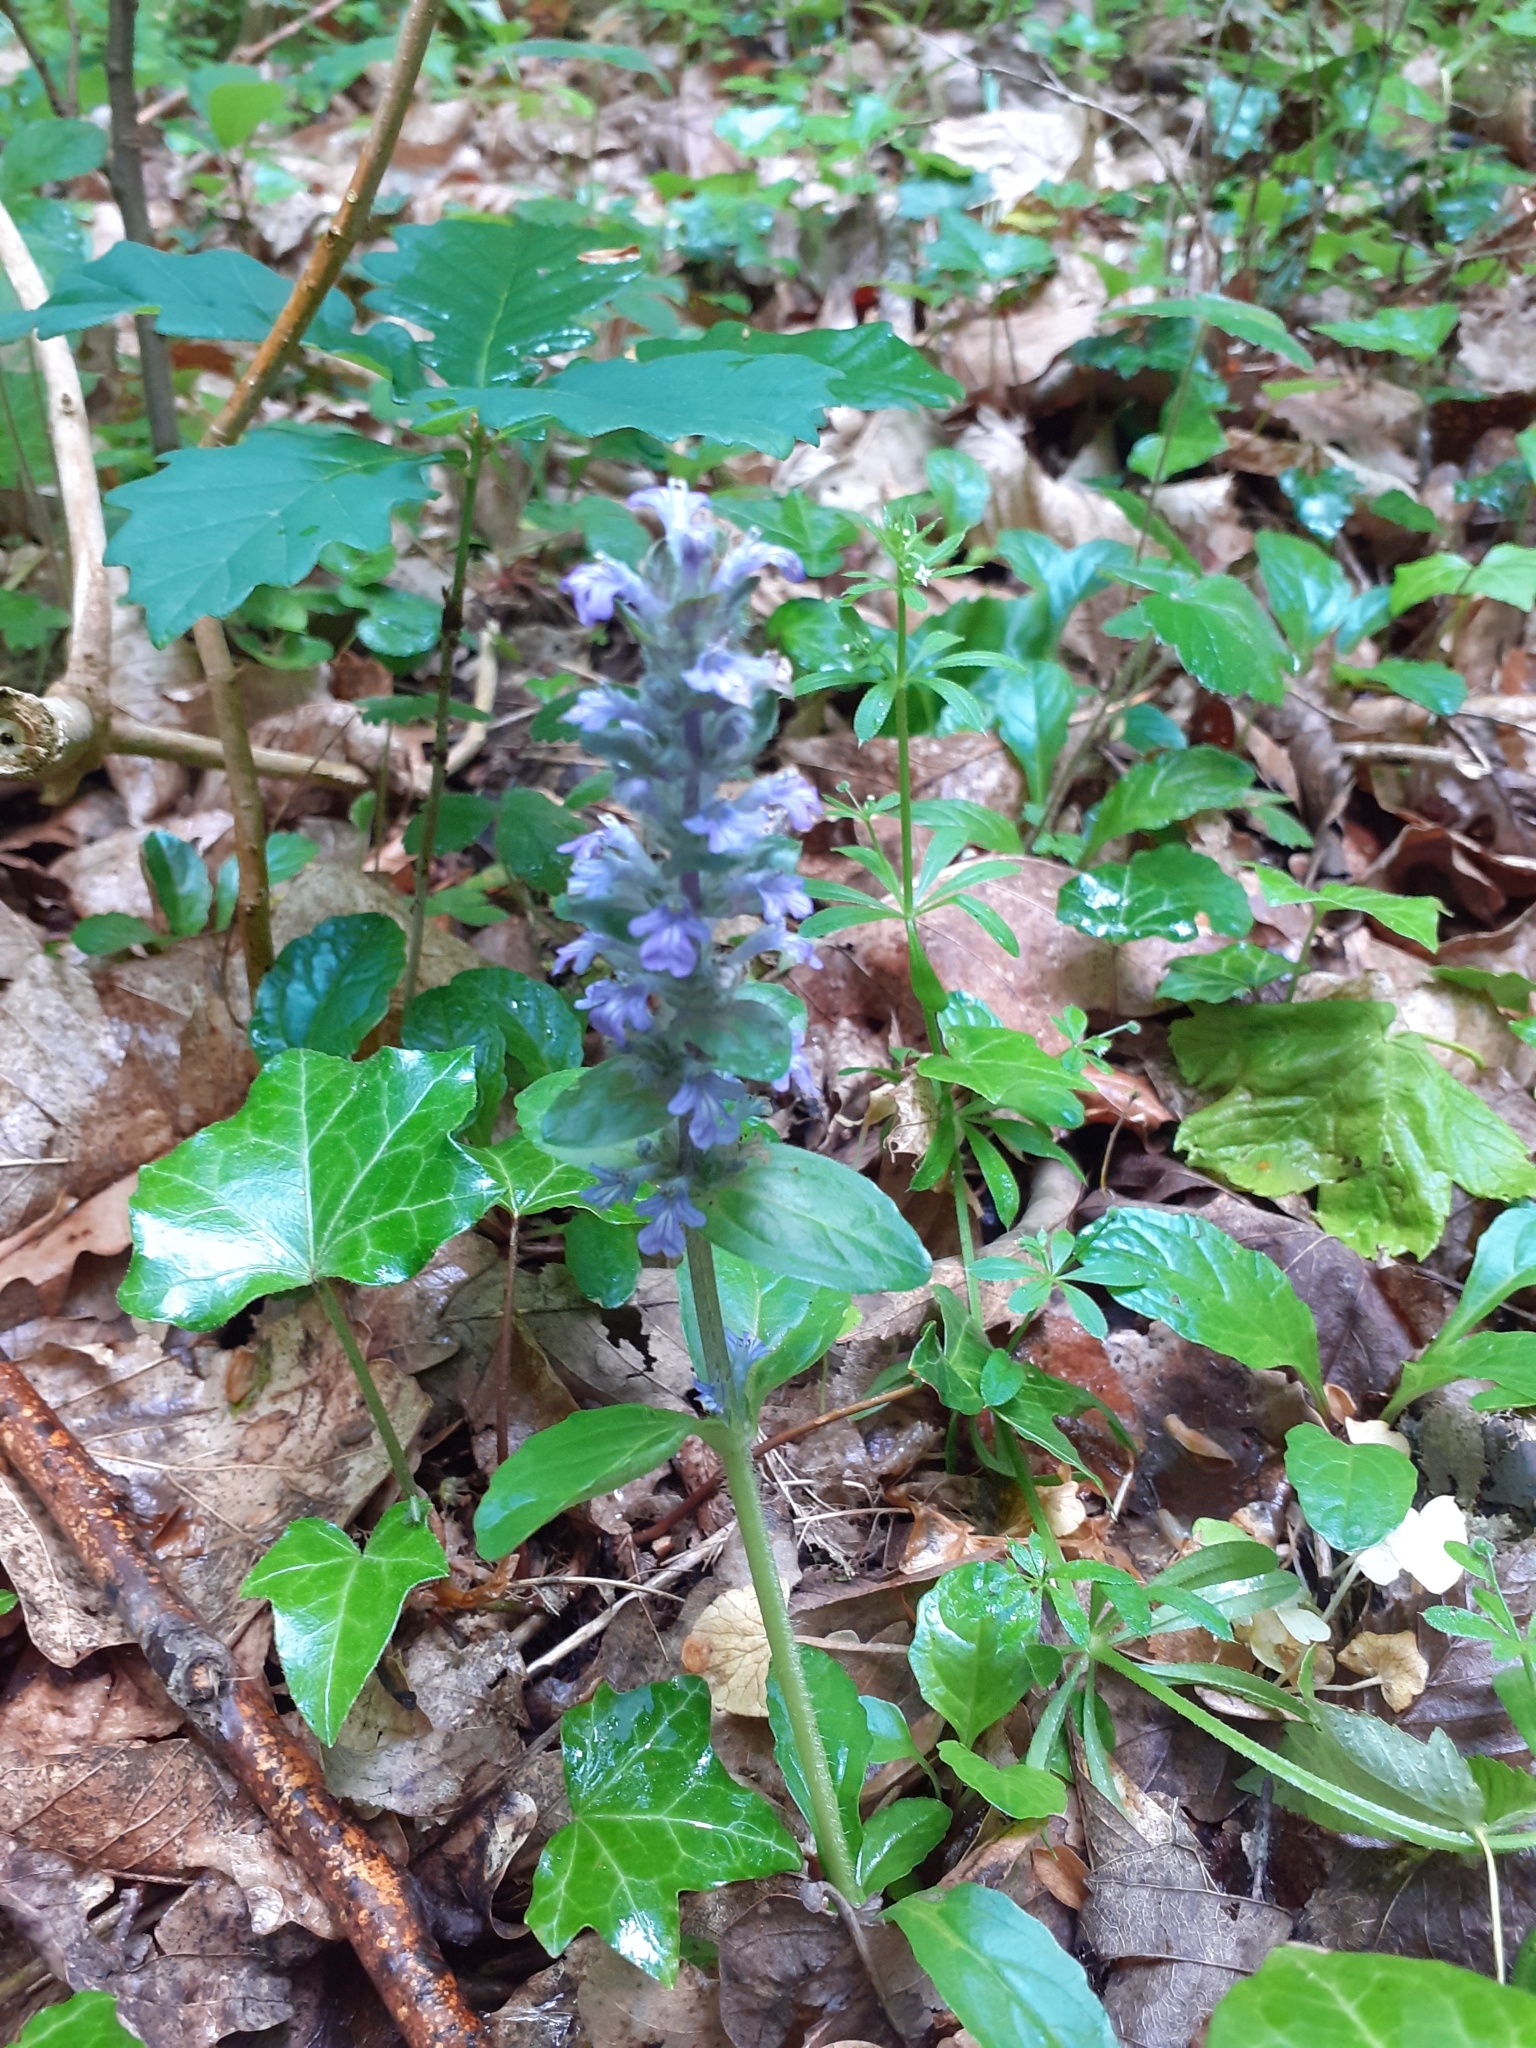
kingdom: Plantae
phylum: Tracheophyta
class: Magnoliopsida
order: Lamiales
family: Lamiaceae
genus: Ajuga
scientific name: Ajuga reptans
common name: Bugle
